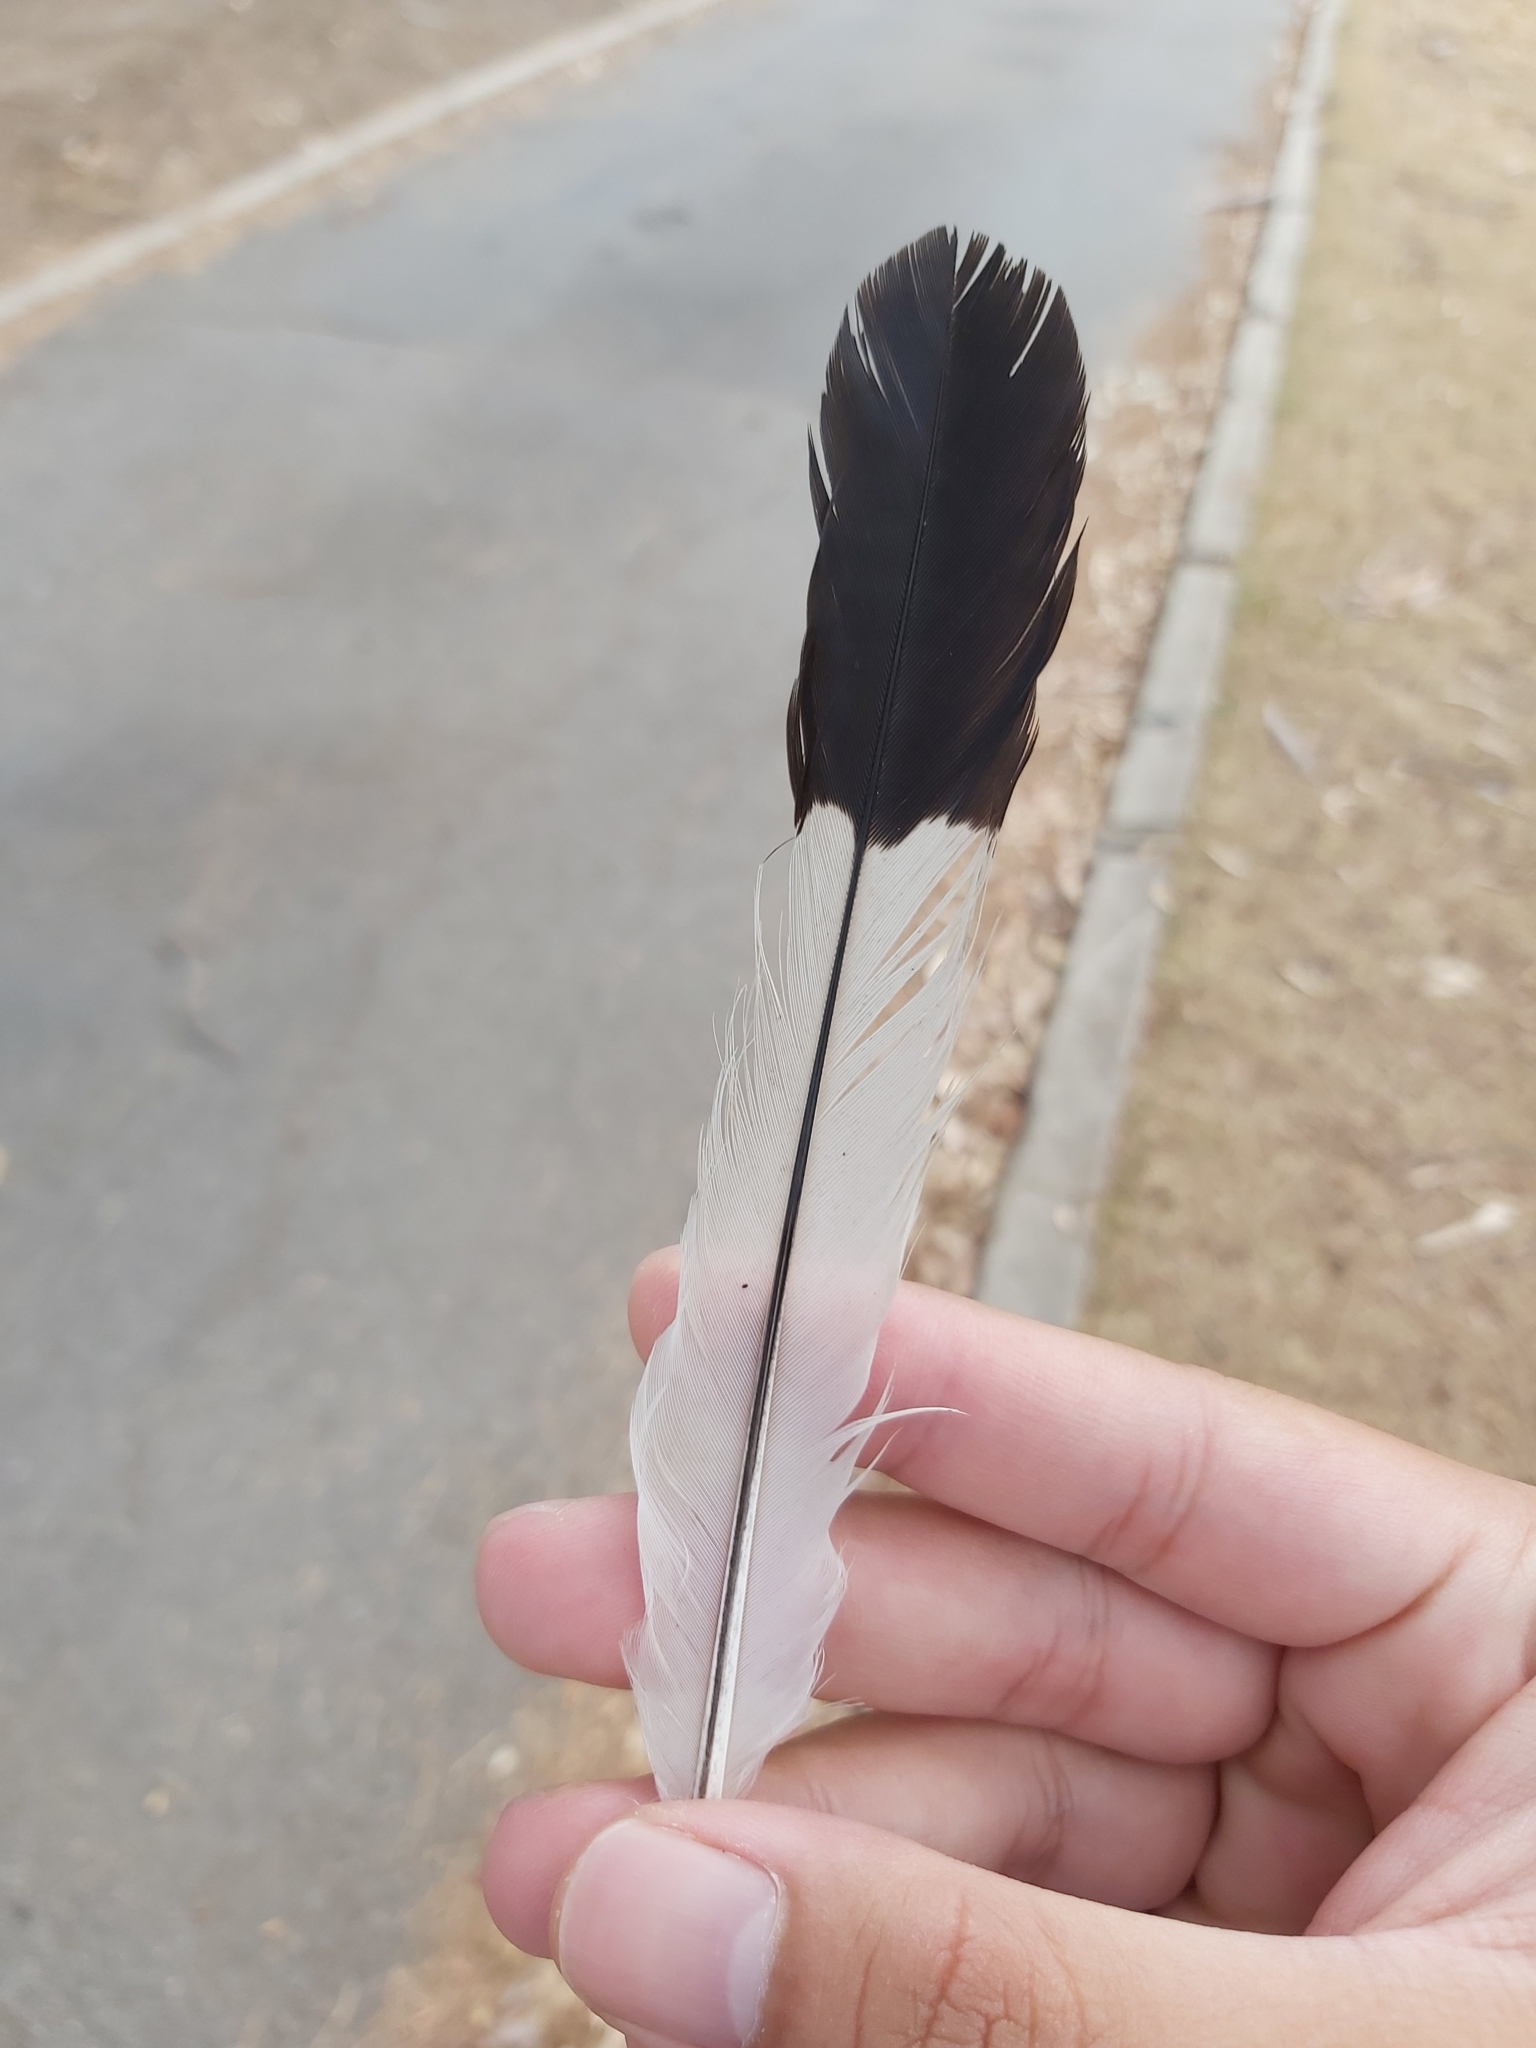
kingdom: Animalia
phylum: Chordata
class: Aves
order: Passeriformes
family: Cracticidae
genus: Gymnorhina
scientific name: Gymnorhina tibicen
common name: Australian magpie
